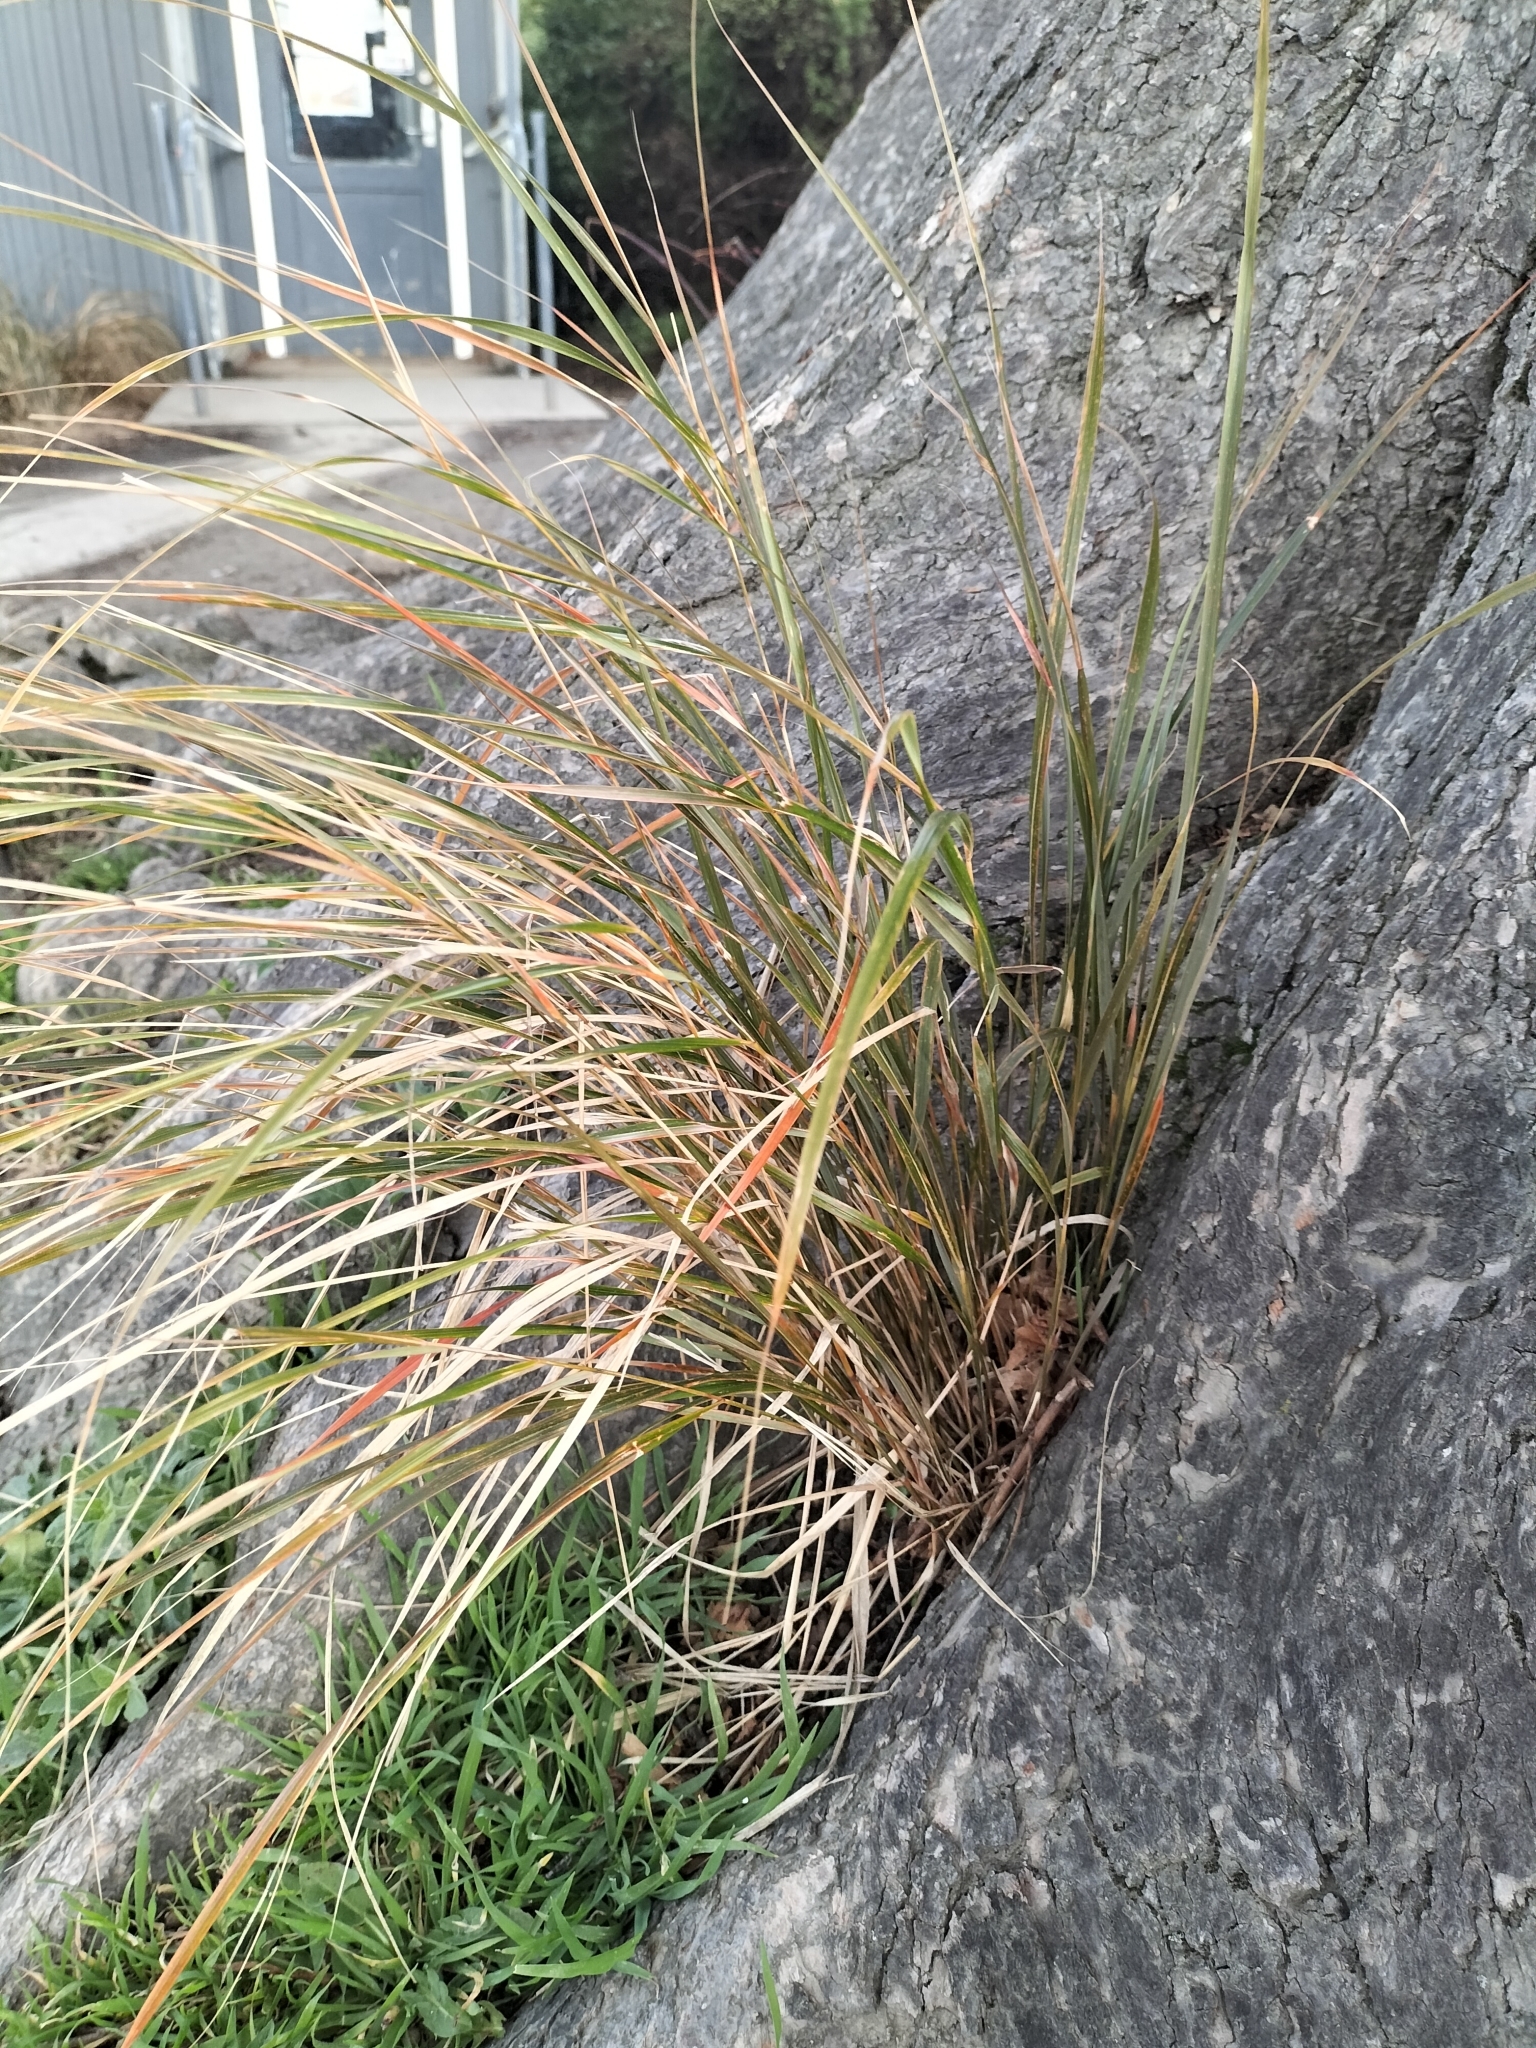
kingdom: Plantae
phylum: Tracheophyta
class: Liliopsida
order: Poales
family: Poaceae
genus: Anemanthele
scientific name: Anemanthele lessoniana
